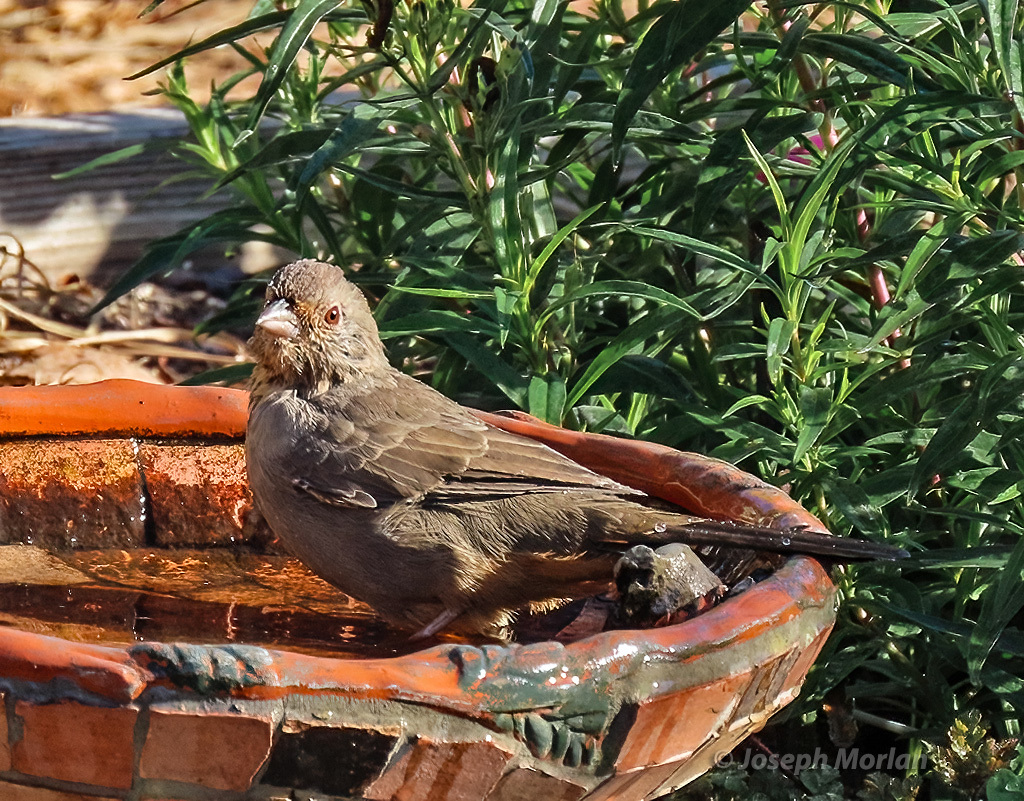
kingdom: Animalia
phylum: Chordata
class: Aves
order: Passeriformes
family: Passerellidae
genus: Melozone
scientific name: Melozone crissalis
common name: California towhee
